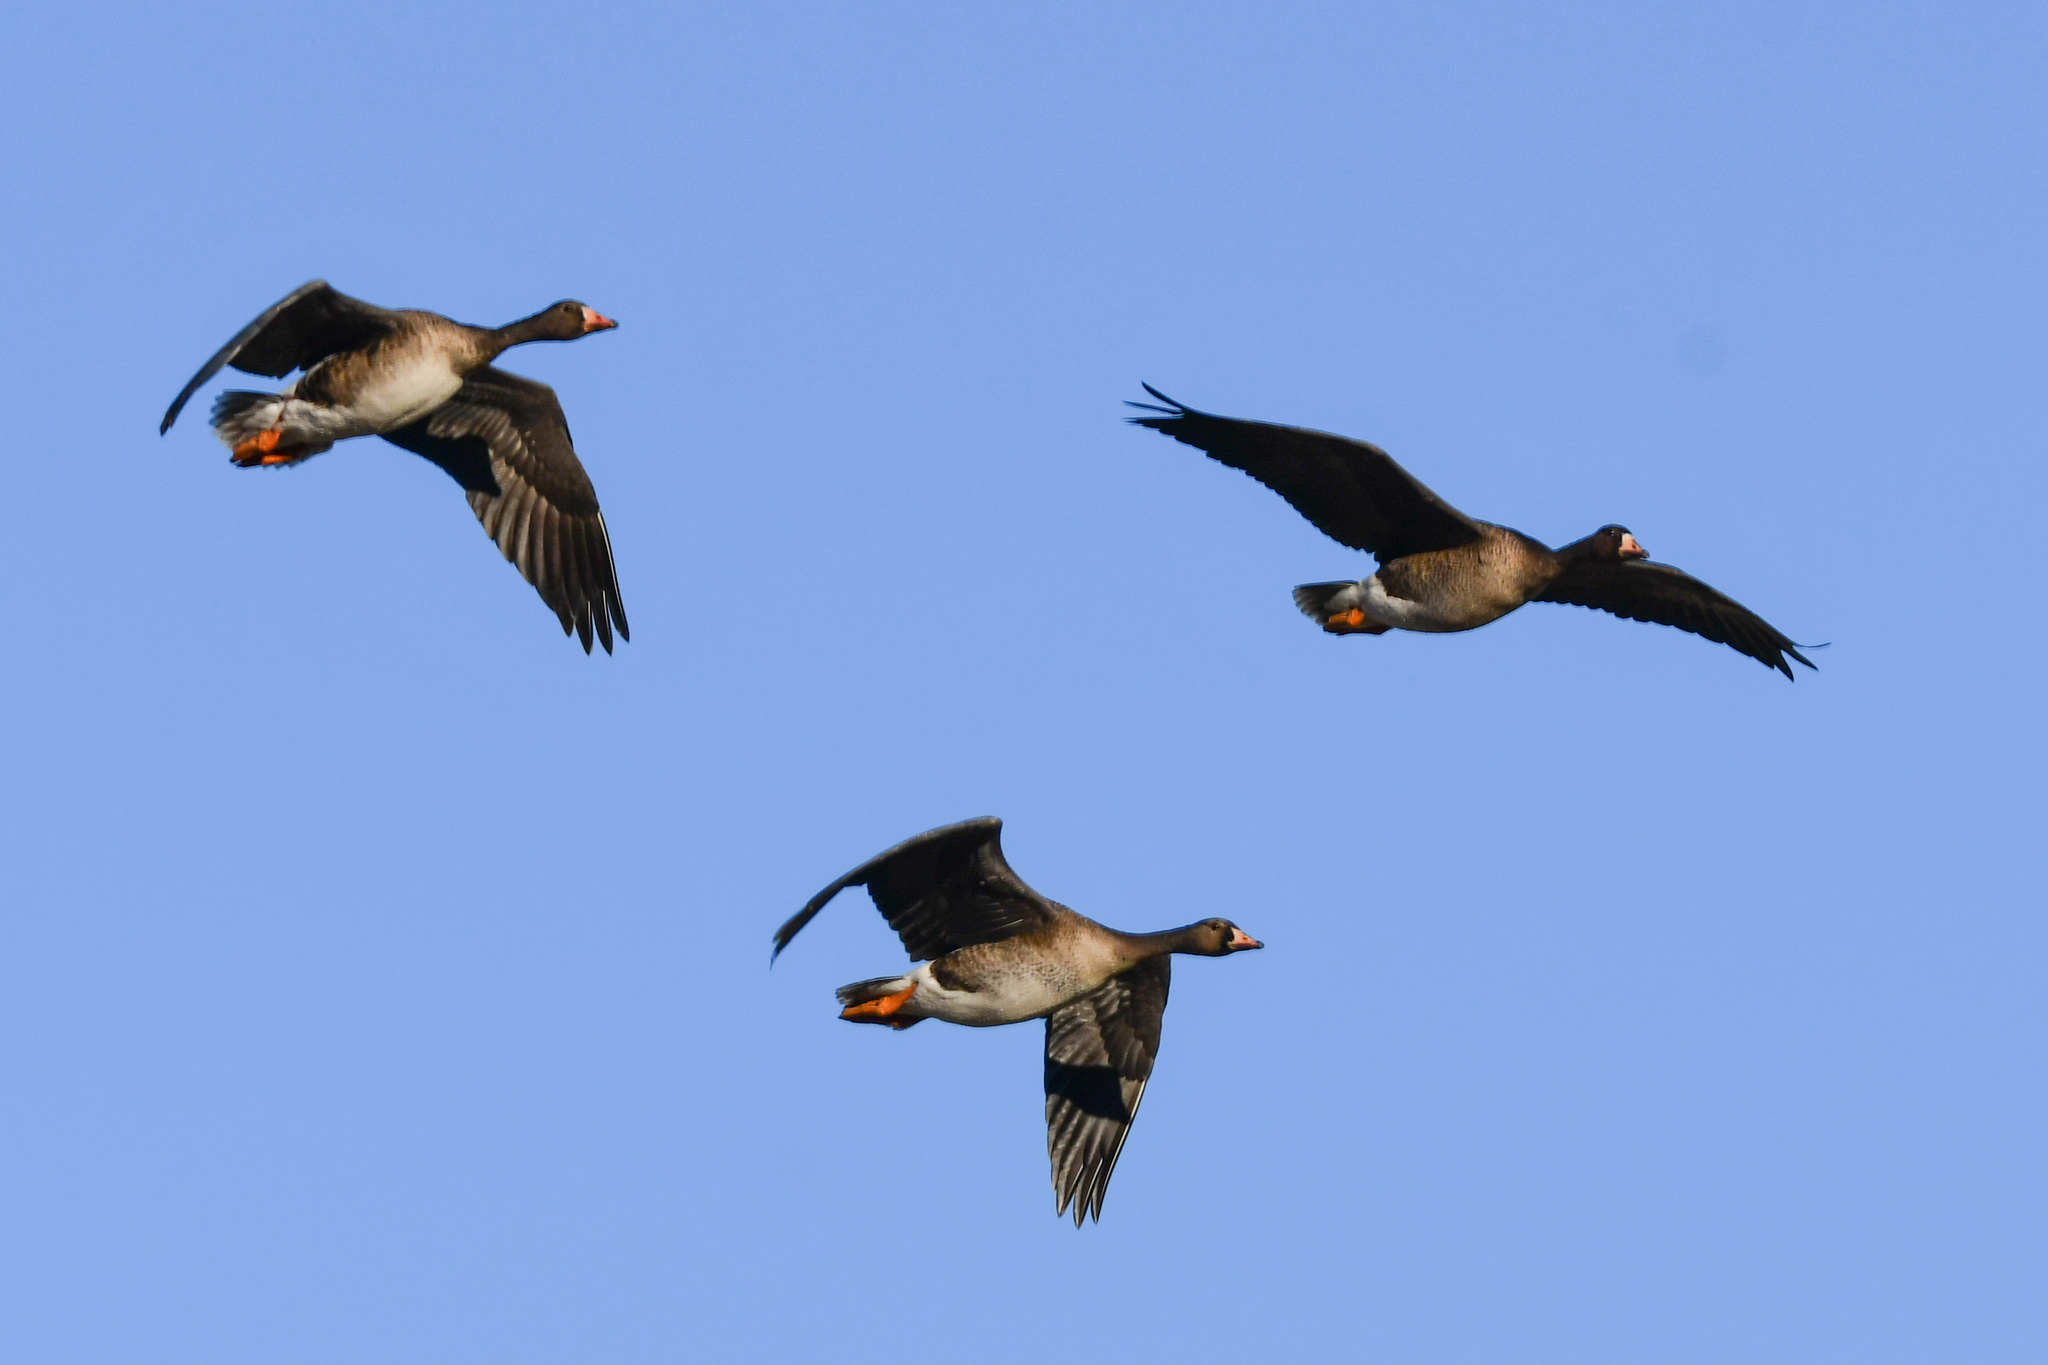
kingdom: Animalia
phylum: Chordata
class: Aves
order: Anseriformes
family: Anatidae
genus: Anser
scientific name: Anser albifrons
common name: Greater white-fronted goose
